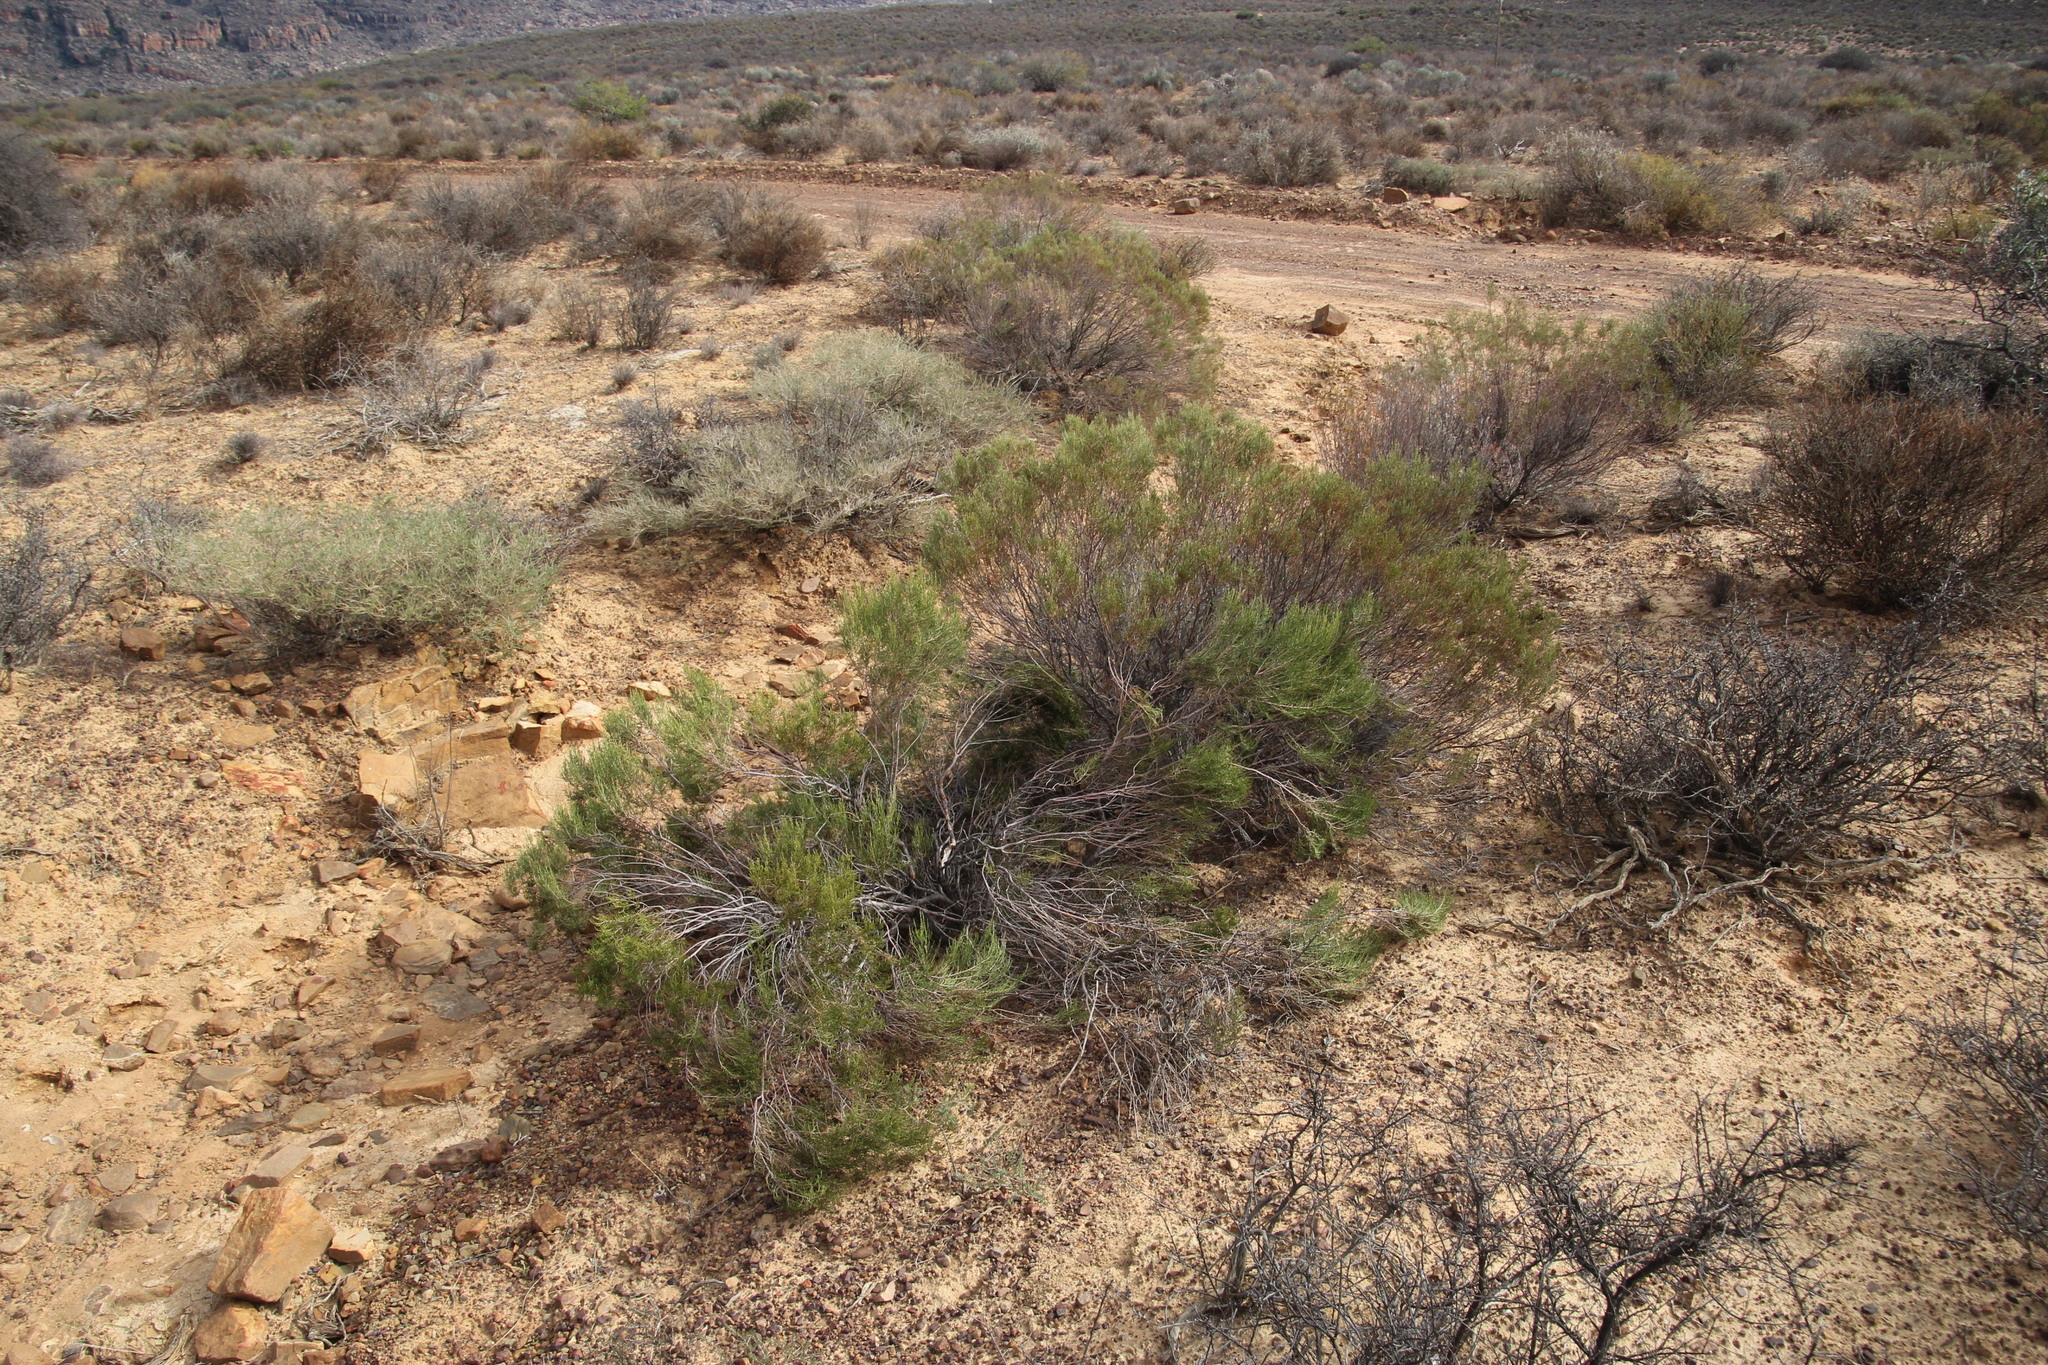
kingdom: Plantae
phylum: Tracheophyta
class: Magnoliopsida
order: Asterales
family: Asteraceae
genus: Dicerothamnus
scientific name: Dicerothamnus rhinocerotis
